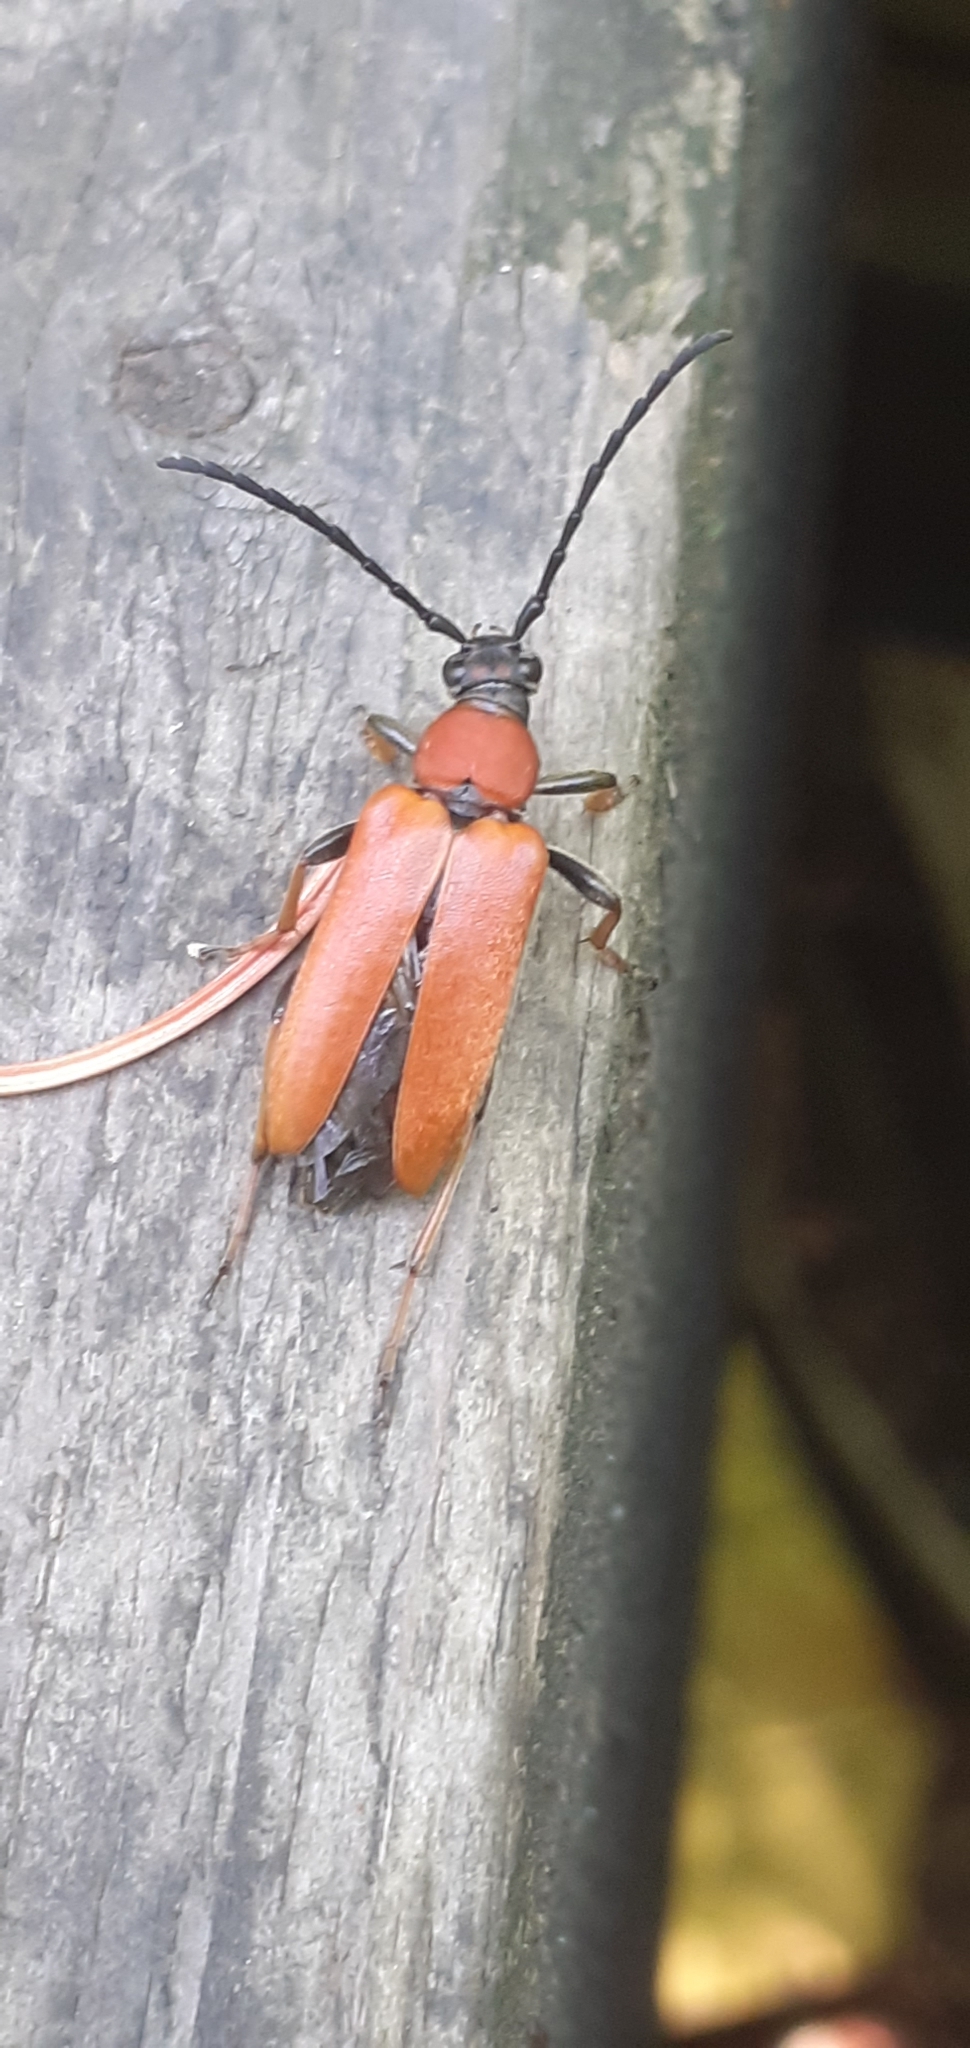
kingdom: Animalia
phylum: Arthropoda
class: Insecta
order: Coleoptera
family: Cerambycidae
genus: Stictoleptura
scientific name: Stictoleptura rubra
